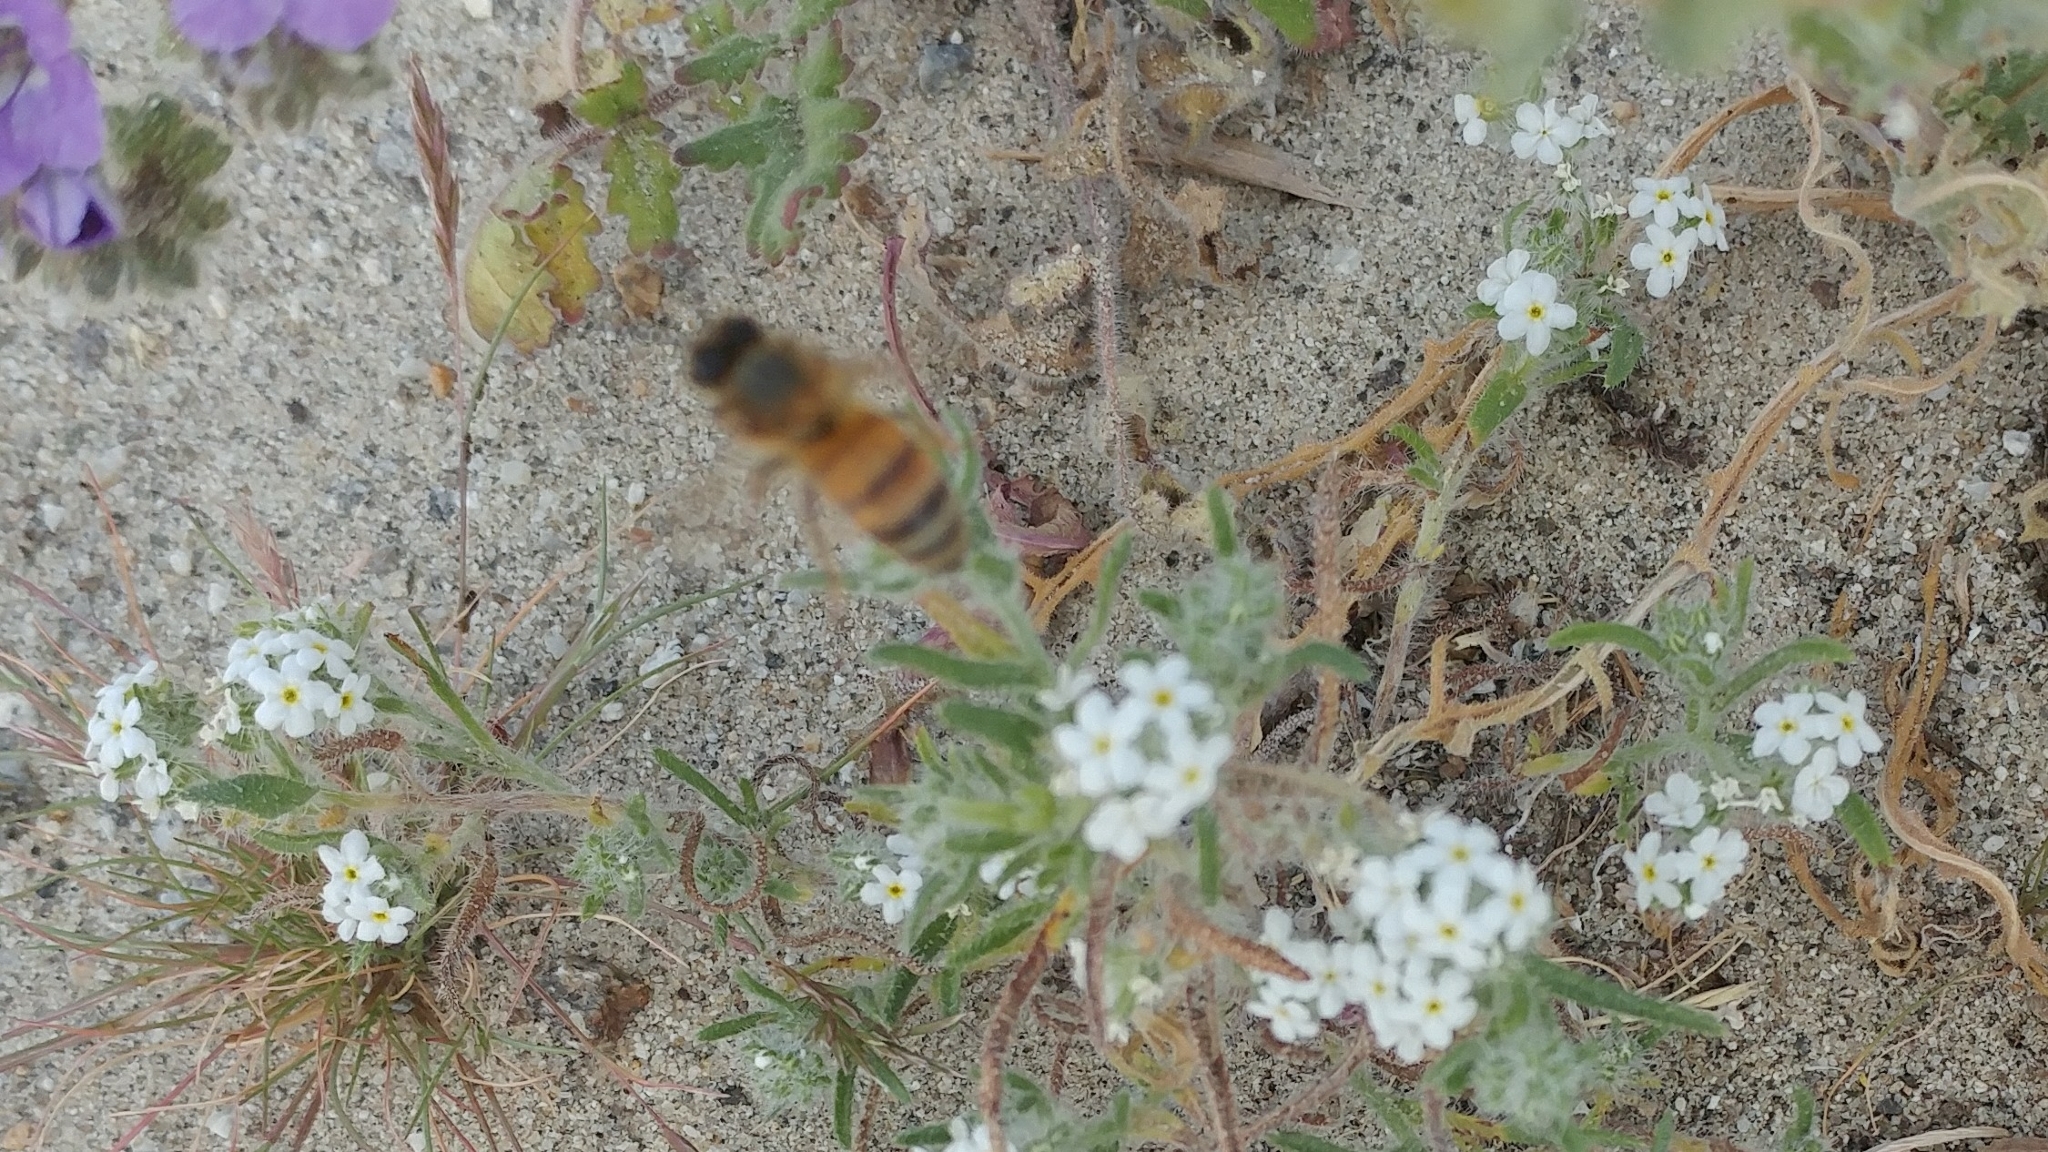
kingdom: Animalia
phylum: Arthropoda
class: Insecta
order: Hymenoptera
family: Apidae
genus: Apis
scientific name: Apis mellifera
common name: Honey bee
